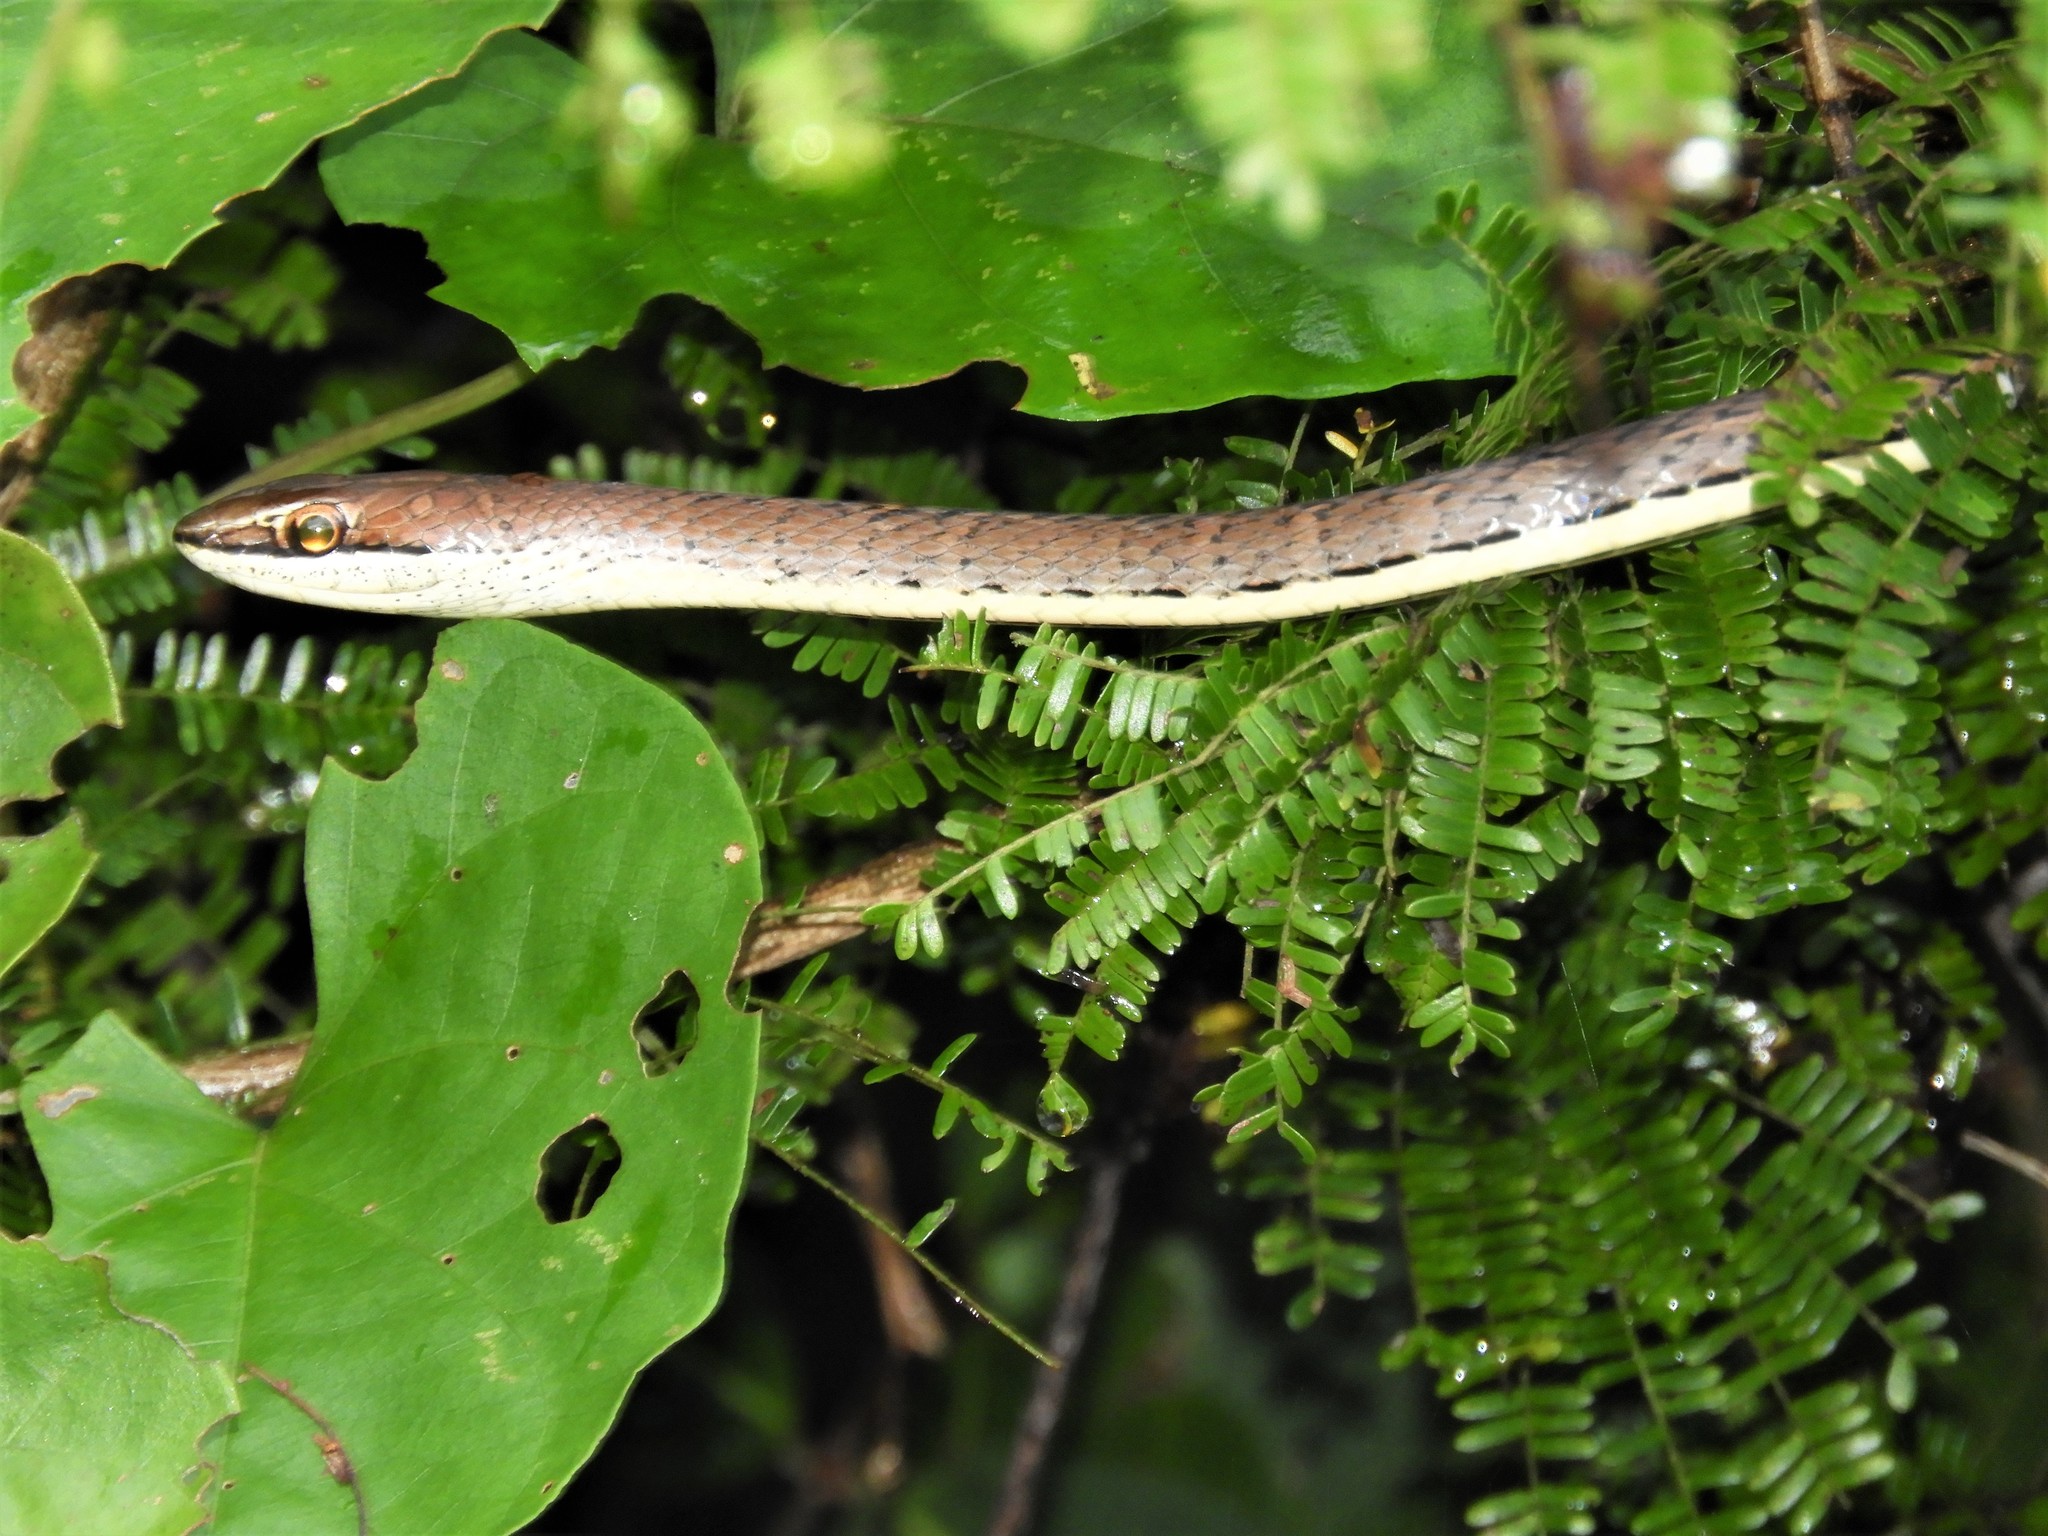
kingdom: Animalia
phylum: Chordata
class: Squamata
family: Psammophiidae
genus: Psammophis
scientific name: Psammophis orientalis
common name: Eastern stripe-bellied sand snake
